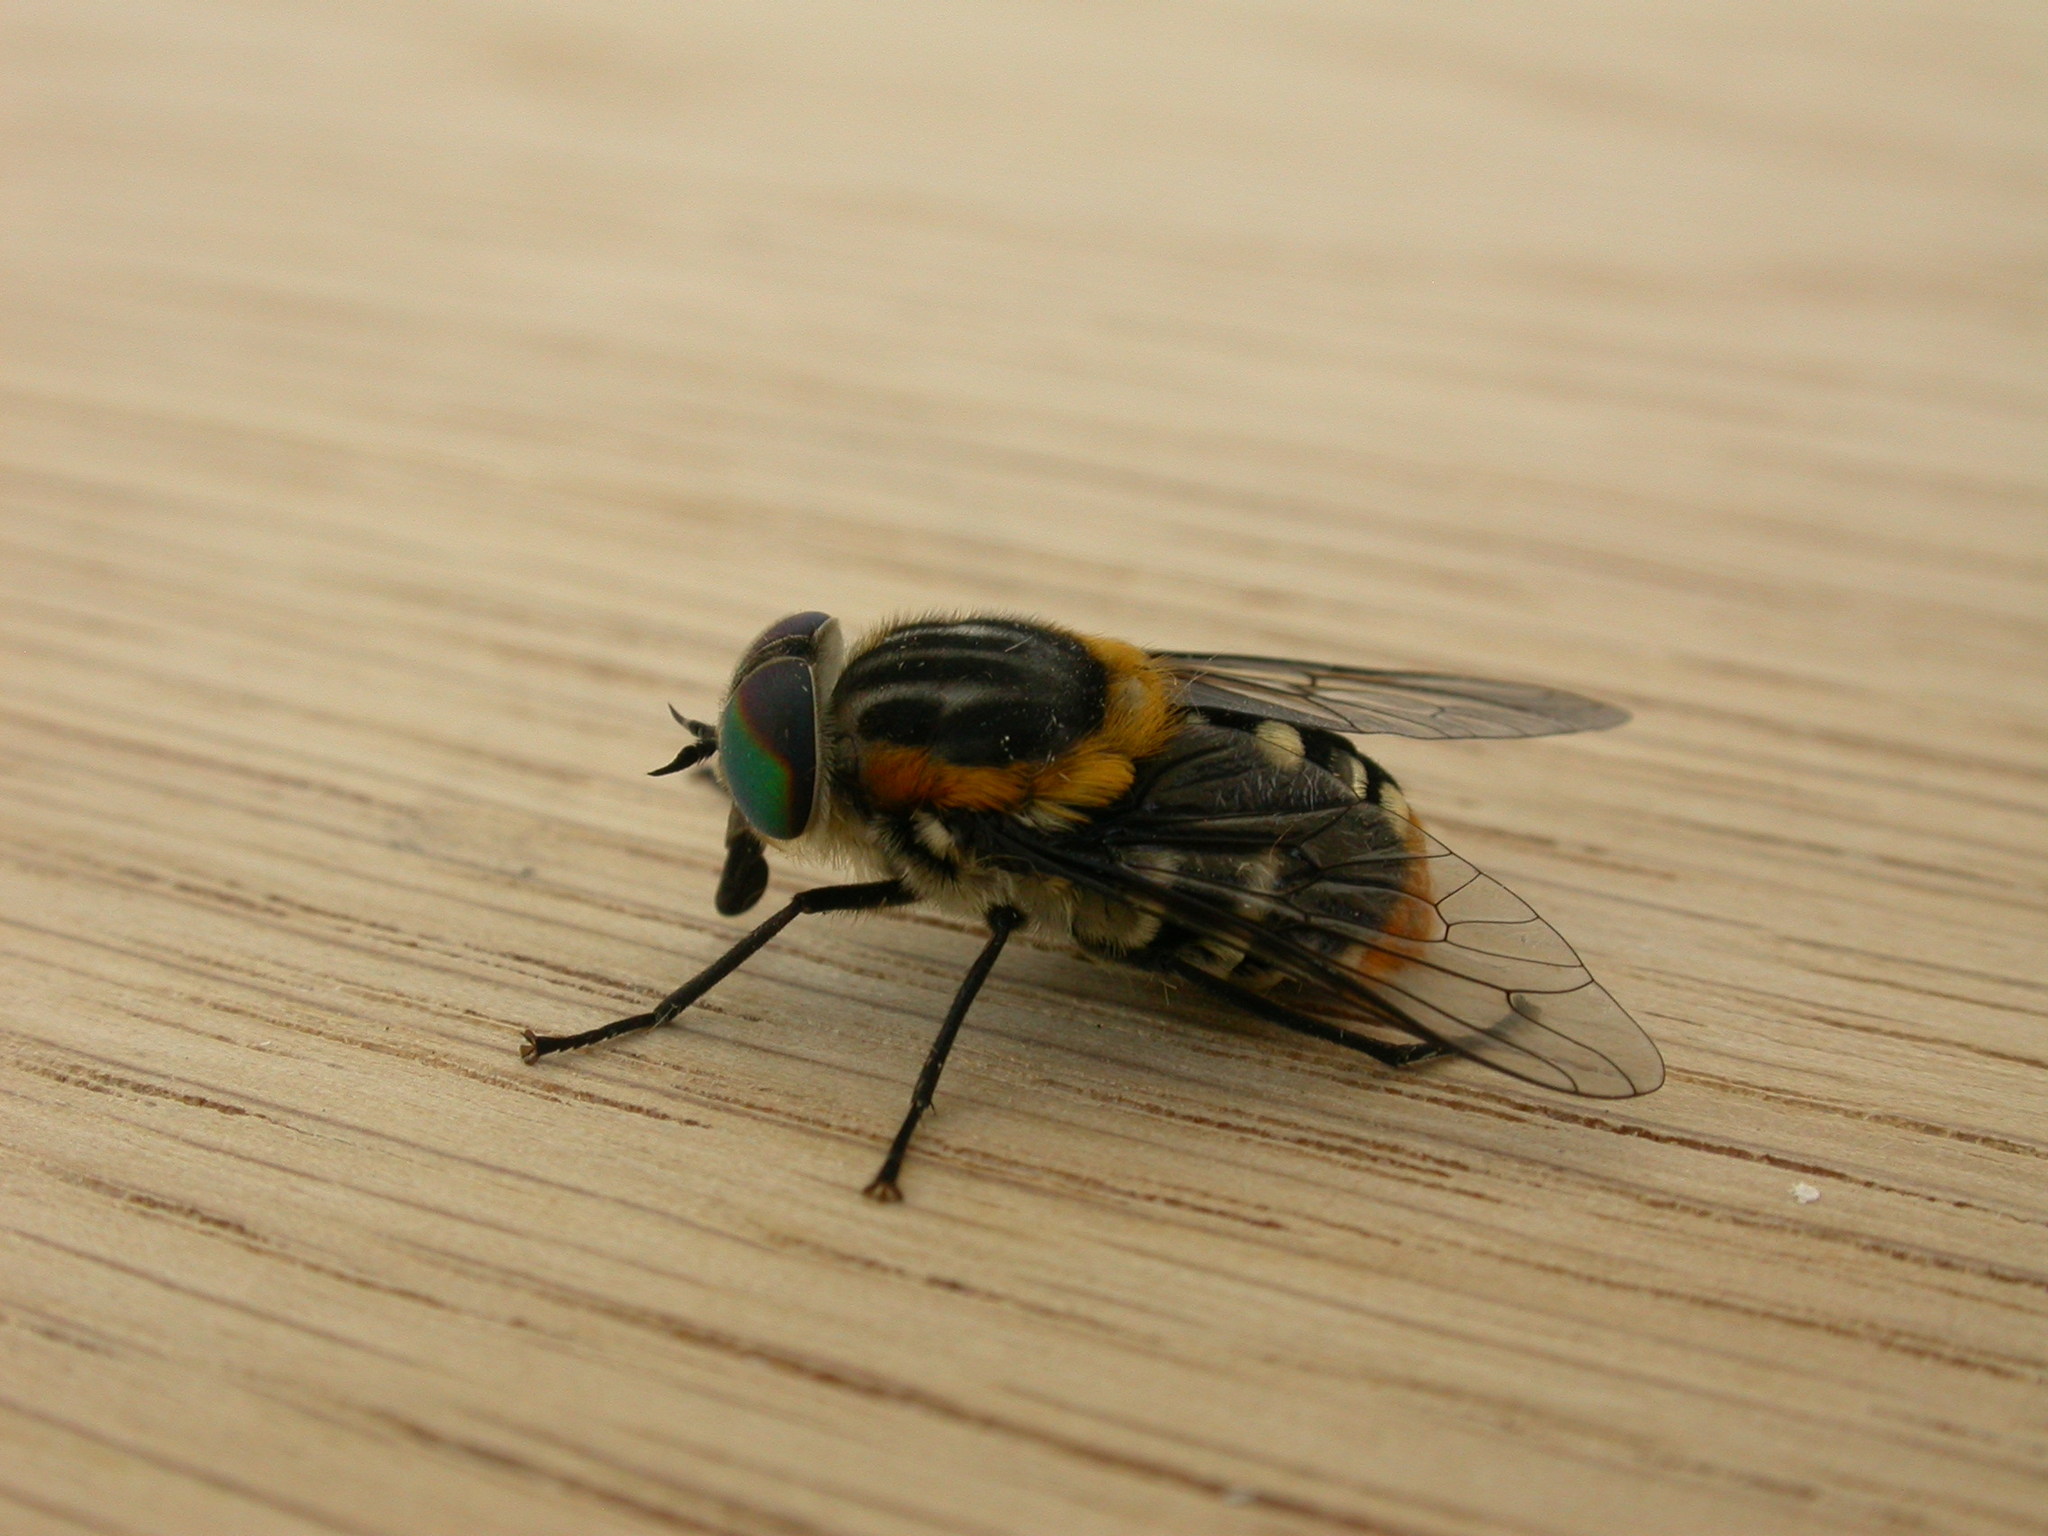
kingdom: Animalia
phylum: Arthropoda
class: Insecta
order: Diptera
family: Tabanidae
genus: Scaptia
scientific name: Scaptia auriflua
